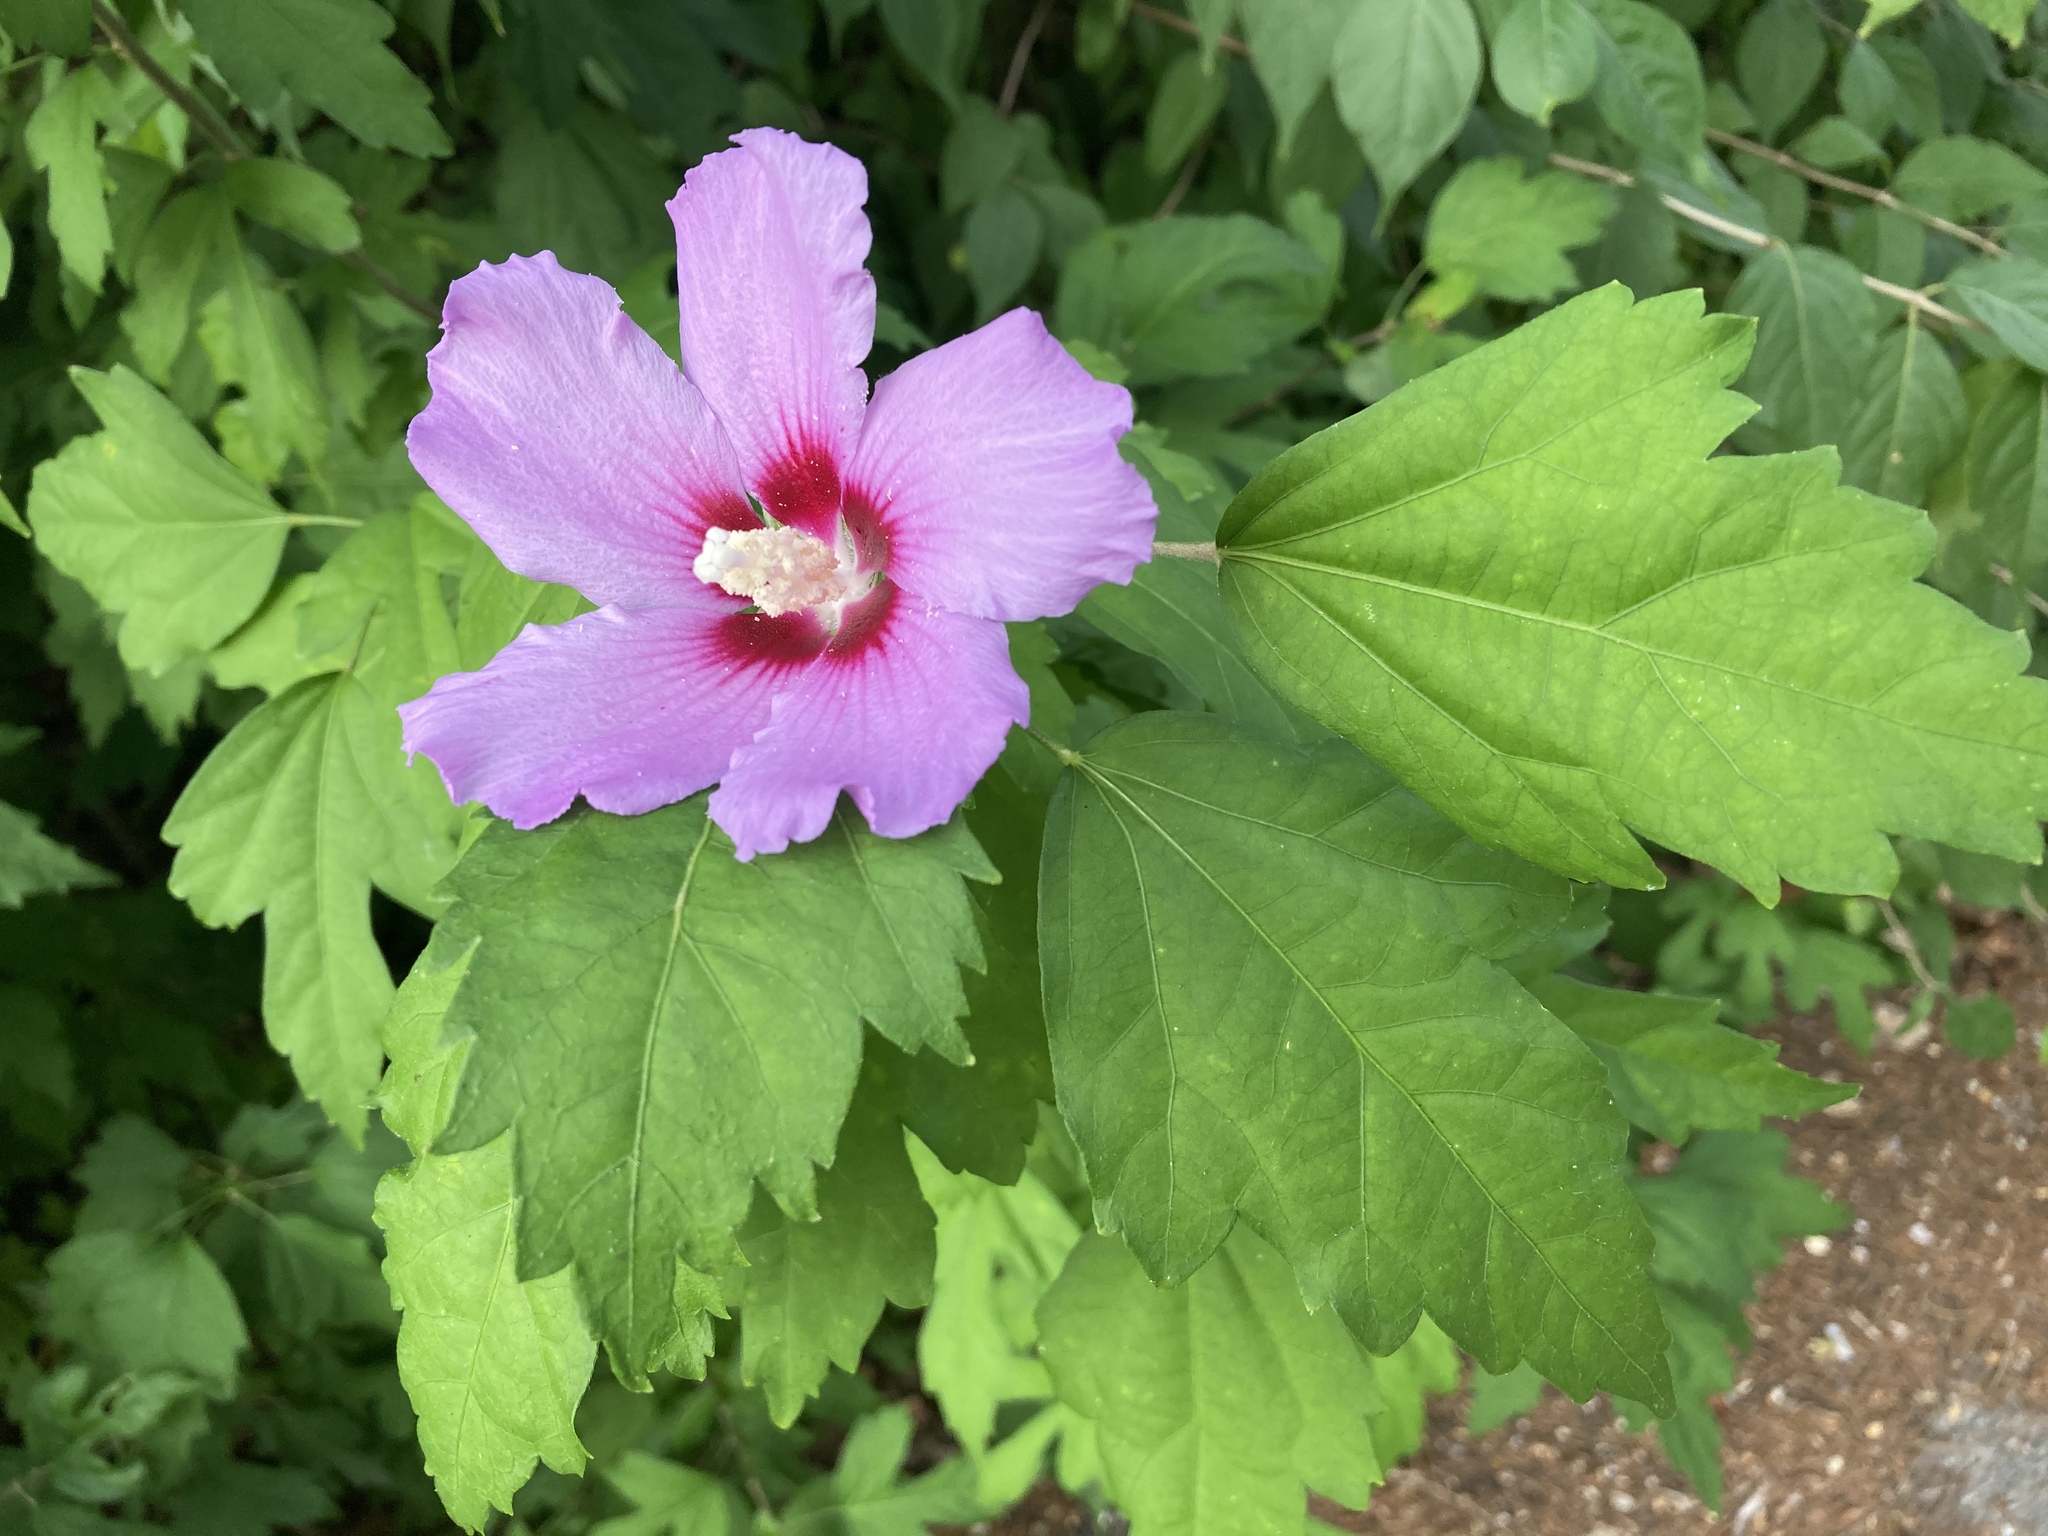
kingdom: Plantae
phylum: Tracheophyta
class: Magnoliopsida
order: Malvales
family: Malvaceae
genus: Hibiscus
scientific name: Hibiscus syriacus
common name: Syrian ketmia
